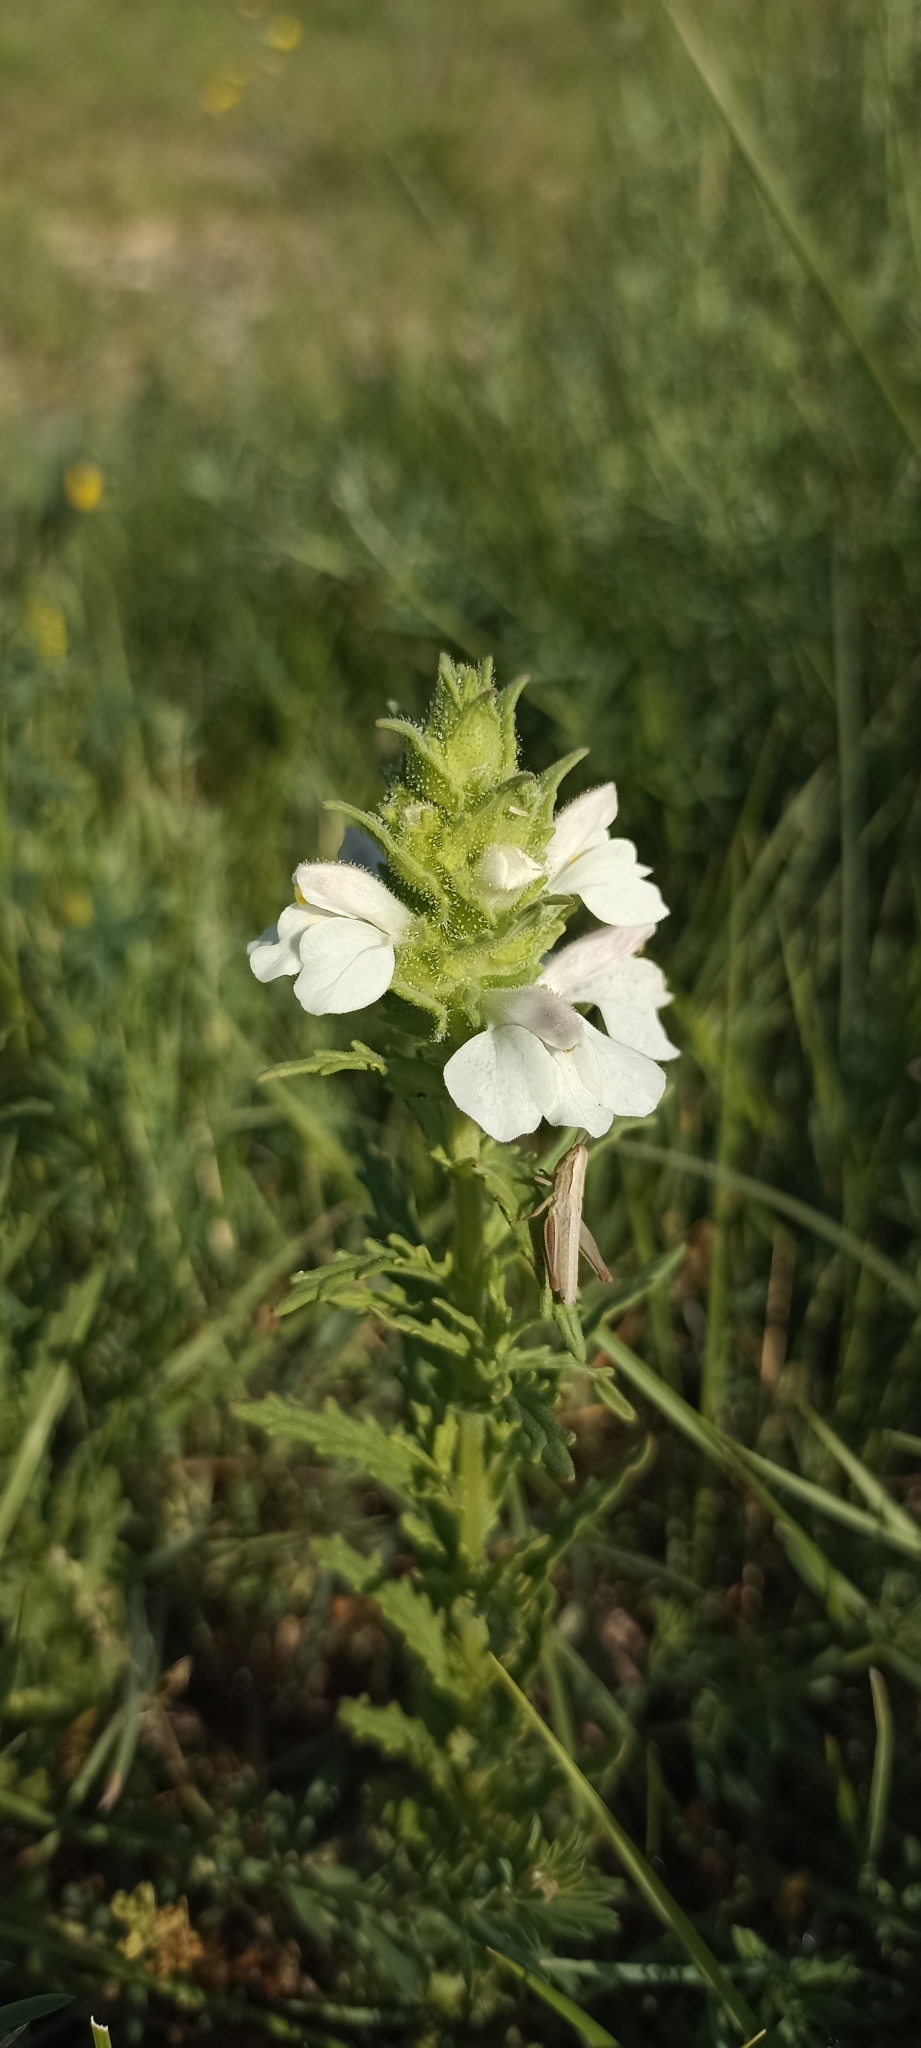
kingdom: Plantae
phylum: Tracheophyta
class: Magnoliopsida
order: Lamiales
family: Orobanchaceae
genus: Bellardia
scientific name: Bellardia trixago
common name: Mediterranean lineseed
